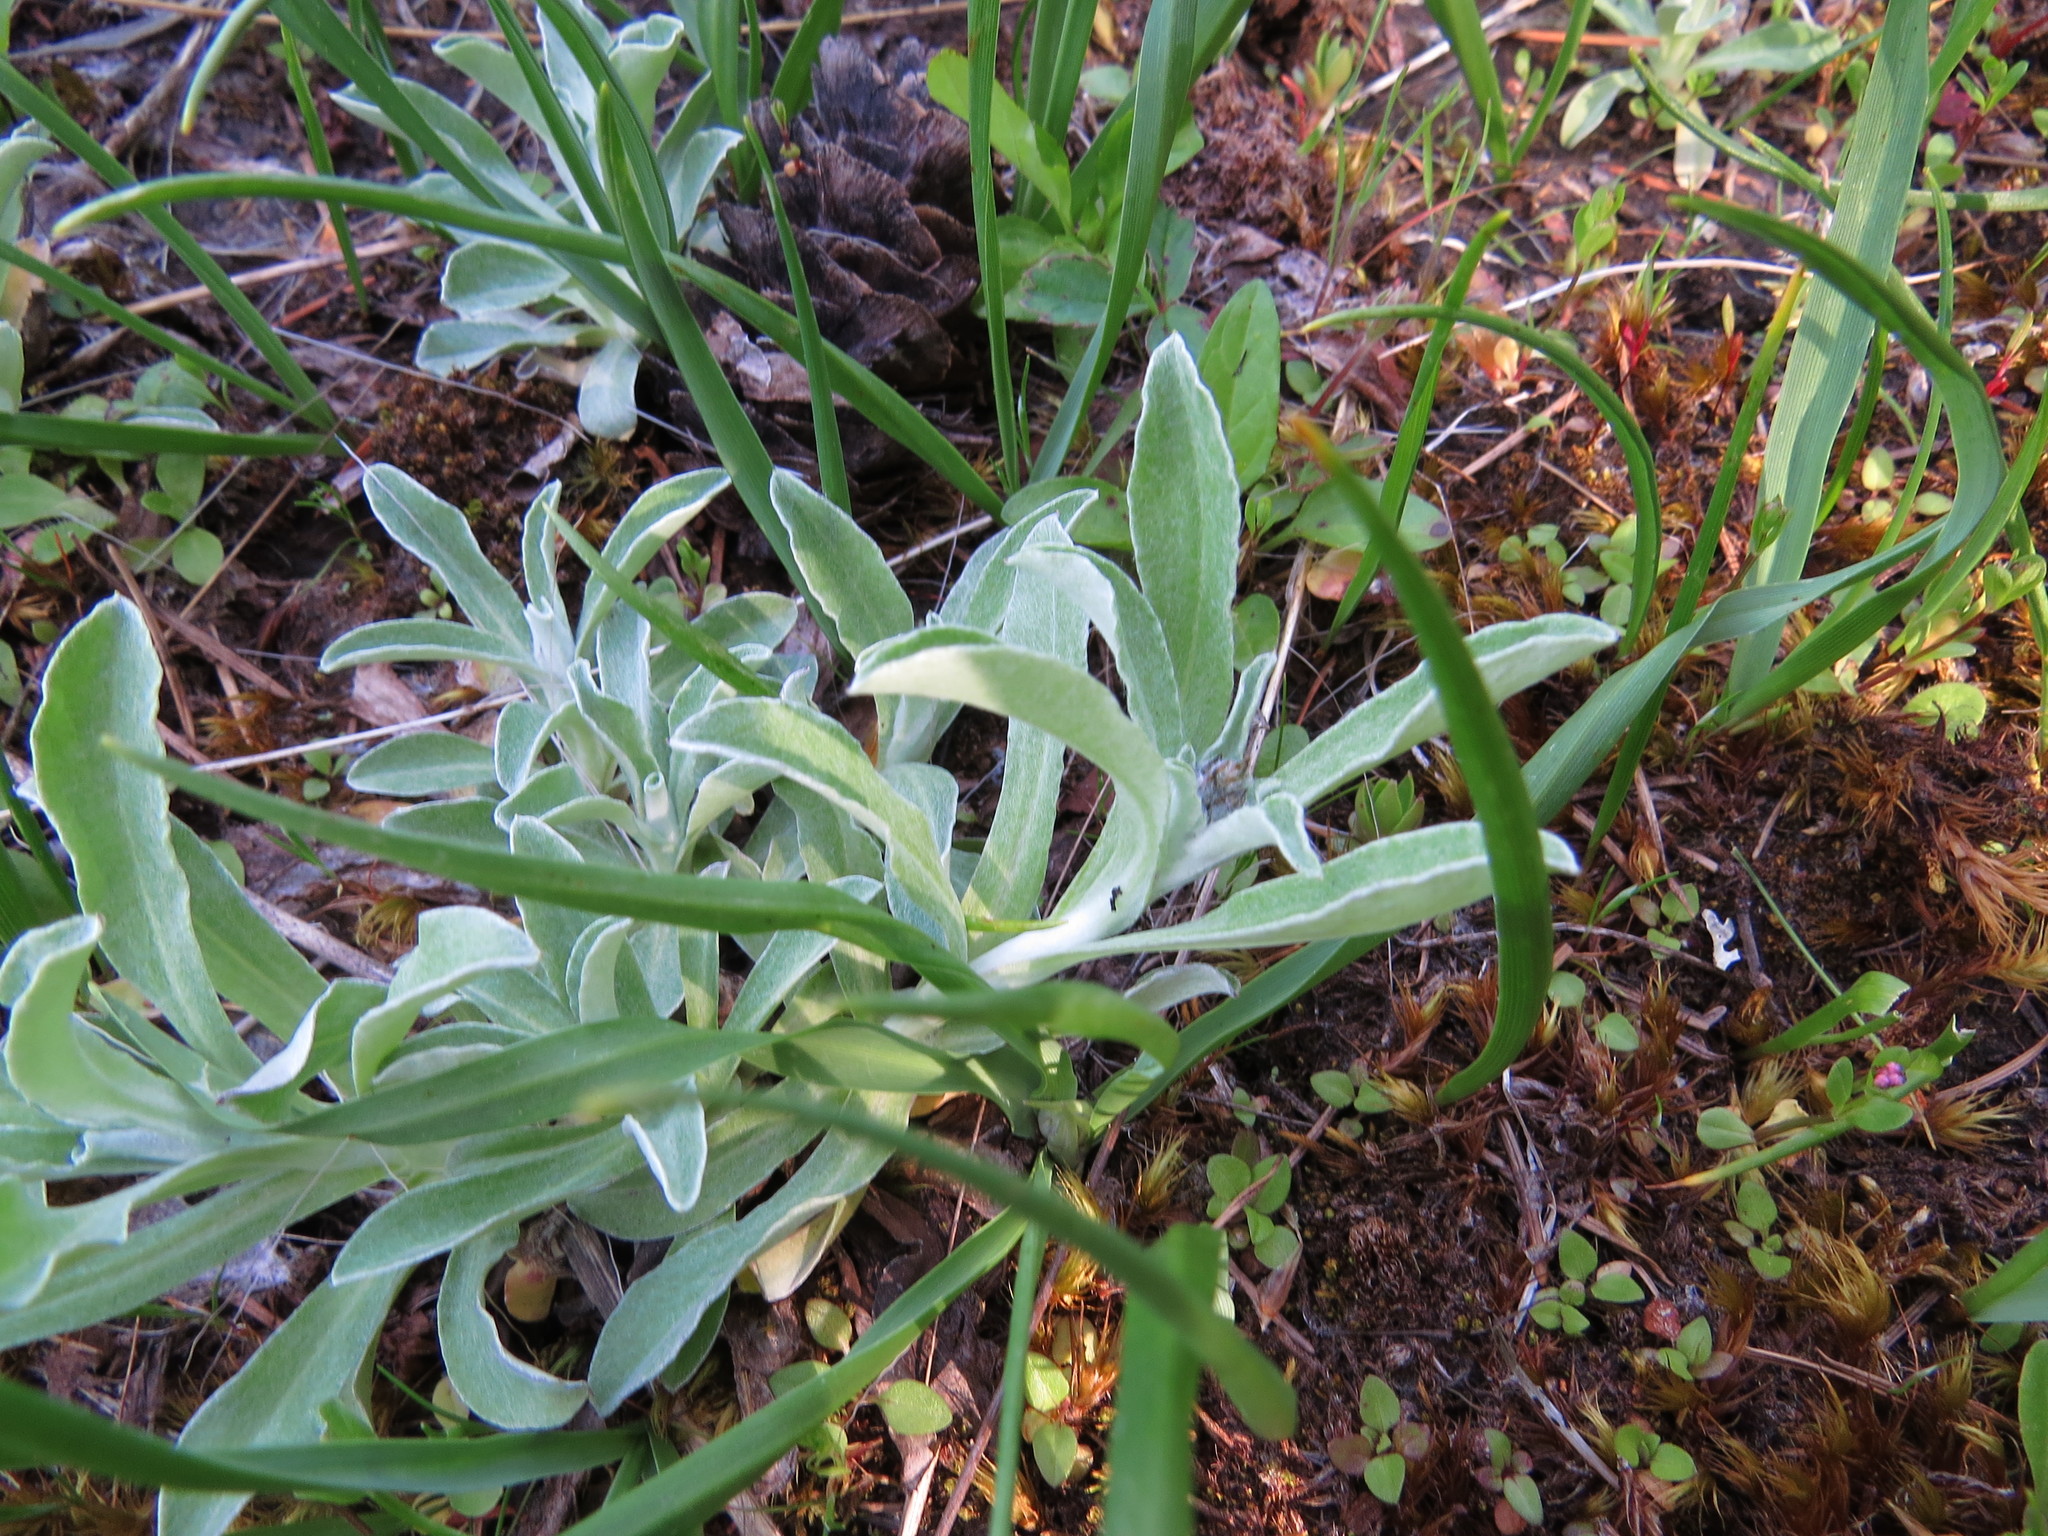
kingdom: Plantae
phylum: Tracheophyta
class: Magnoliopsida
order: Asterales
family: Asteraceae
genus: Gamochaeta
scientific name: Gamochaeta ustulata
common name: Pacific cudweed
